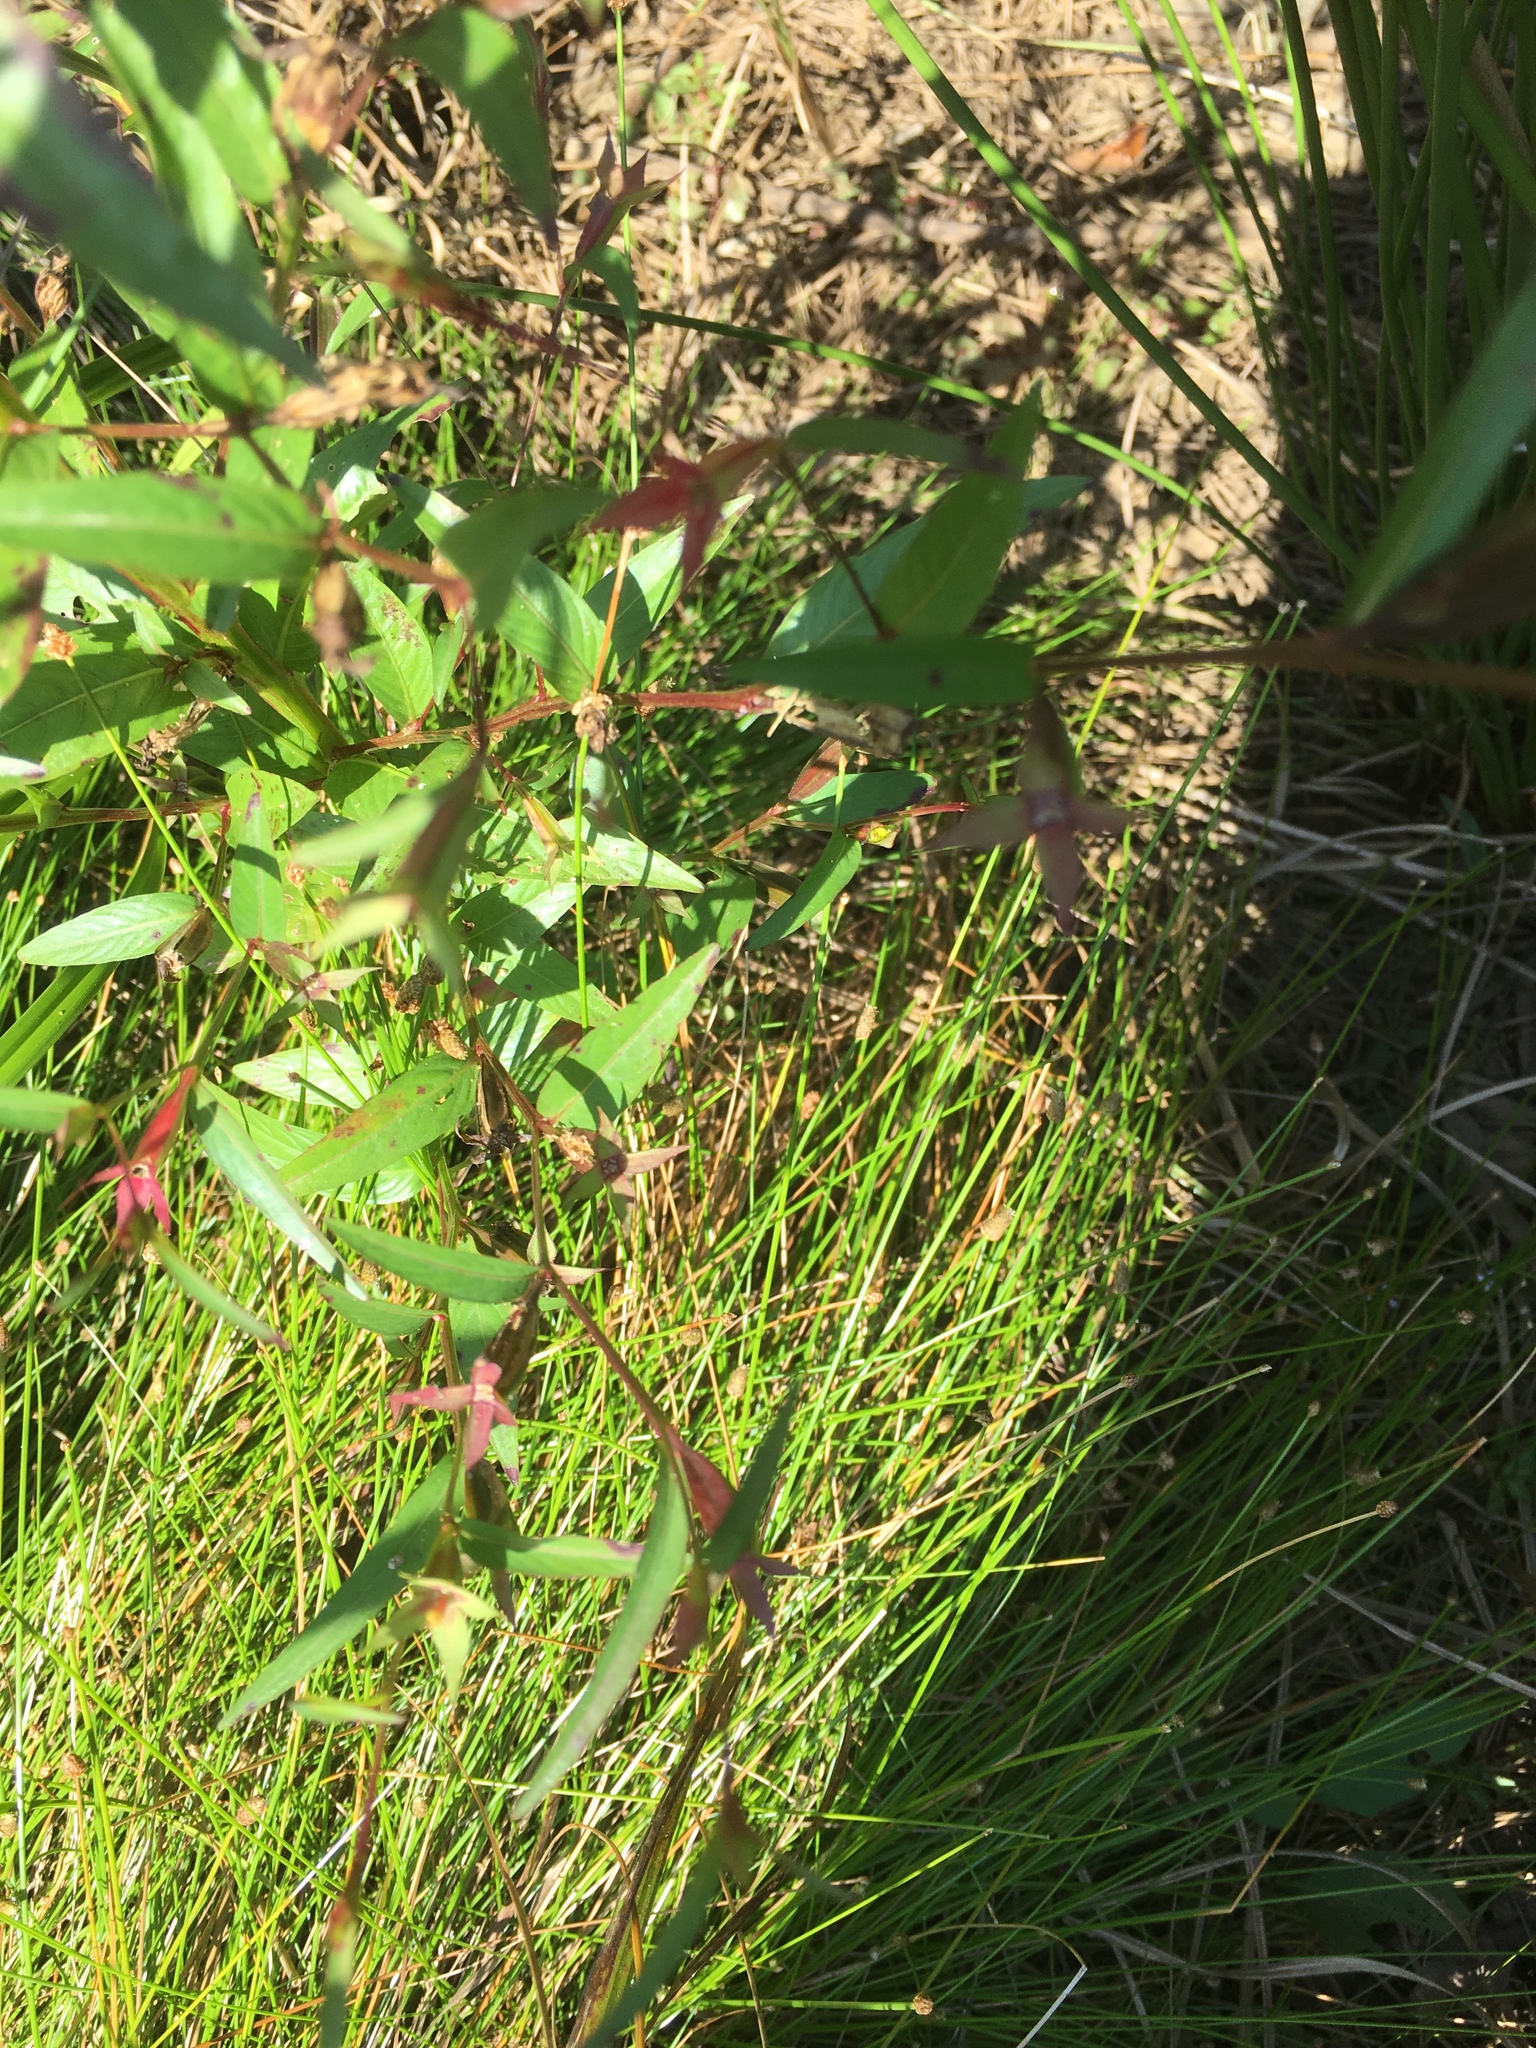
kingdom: Plantae
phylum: Tracheophyta
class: Magnoliopsida
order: Myrtales
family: Onagraceae
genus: Ludwigia
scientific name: Ludwigia decurrens
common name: Winged water-primrose
